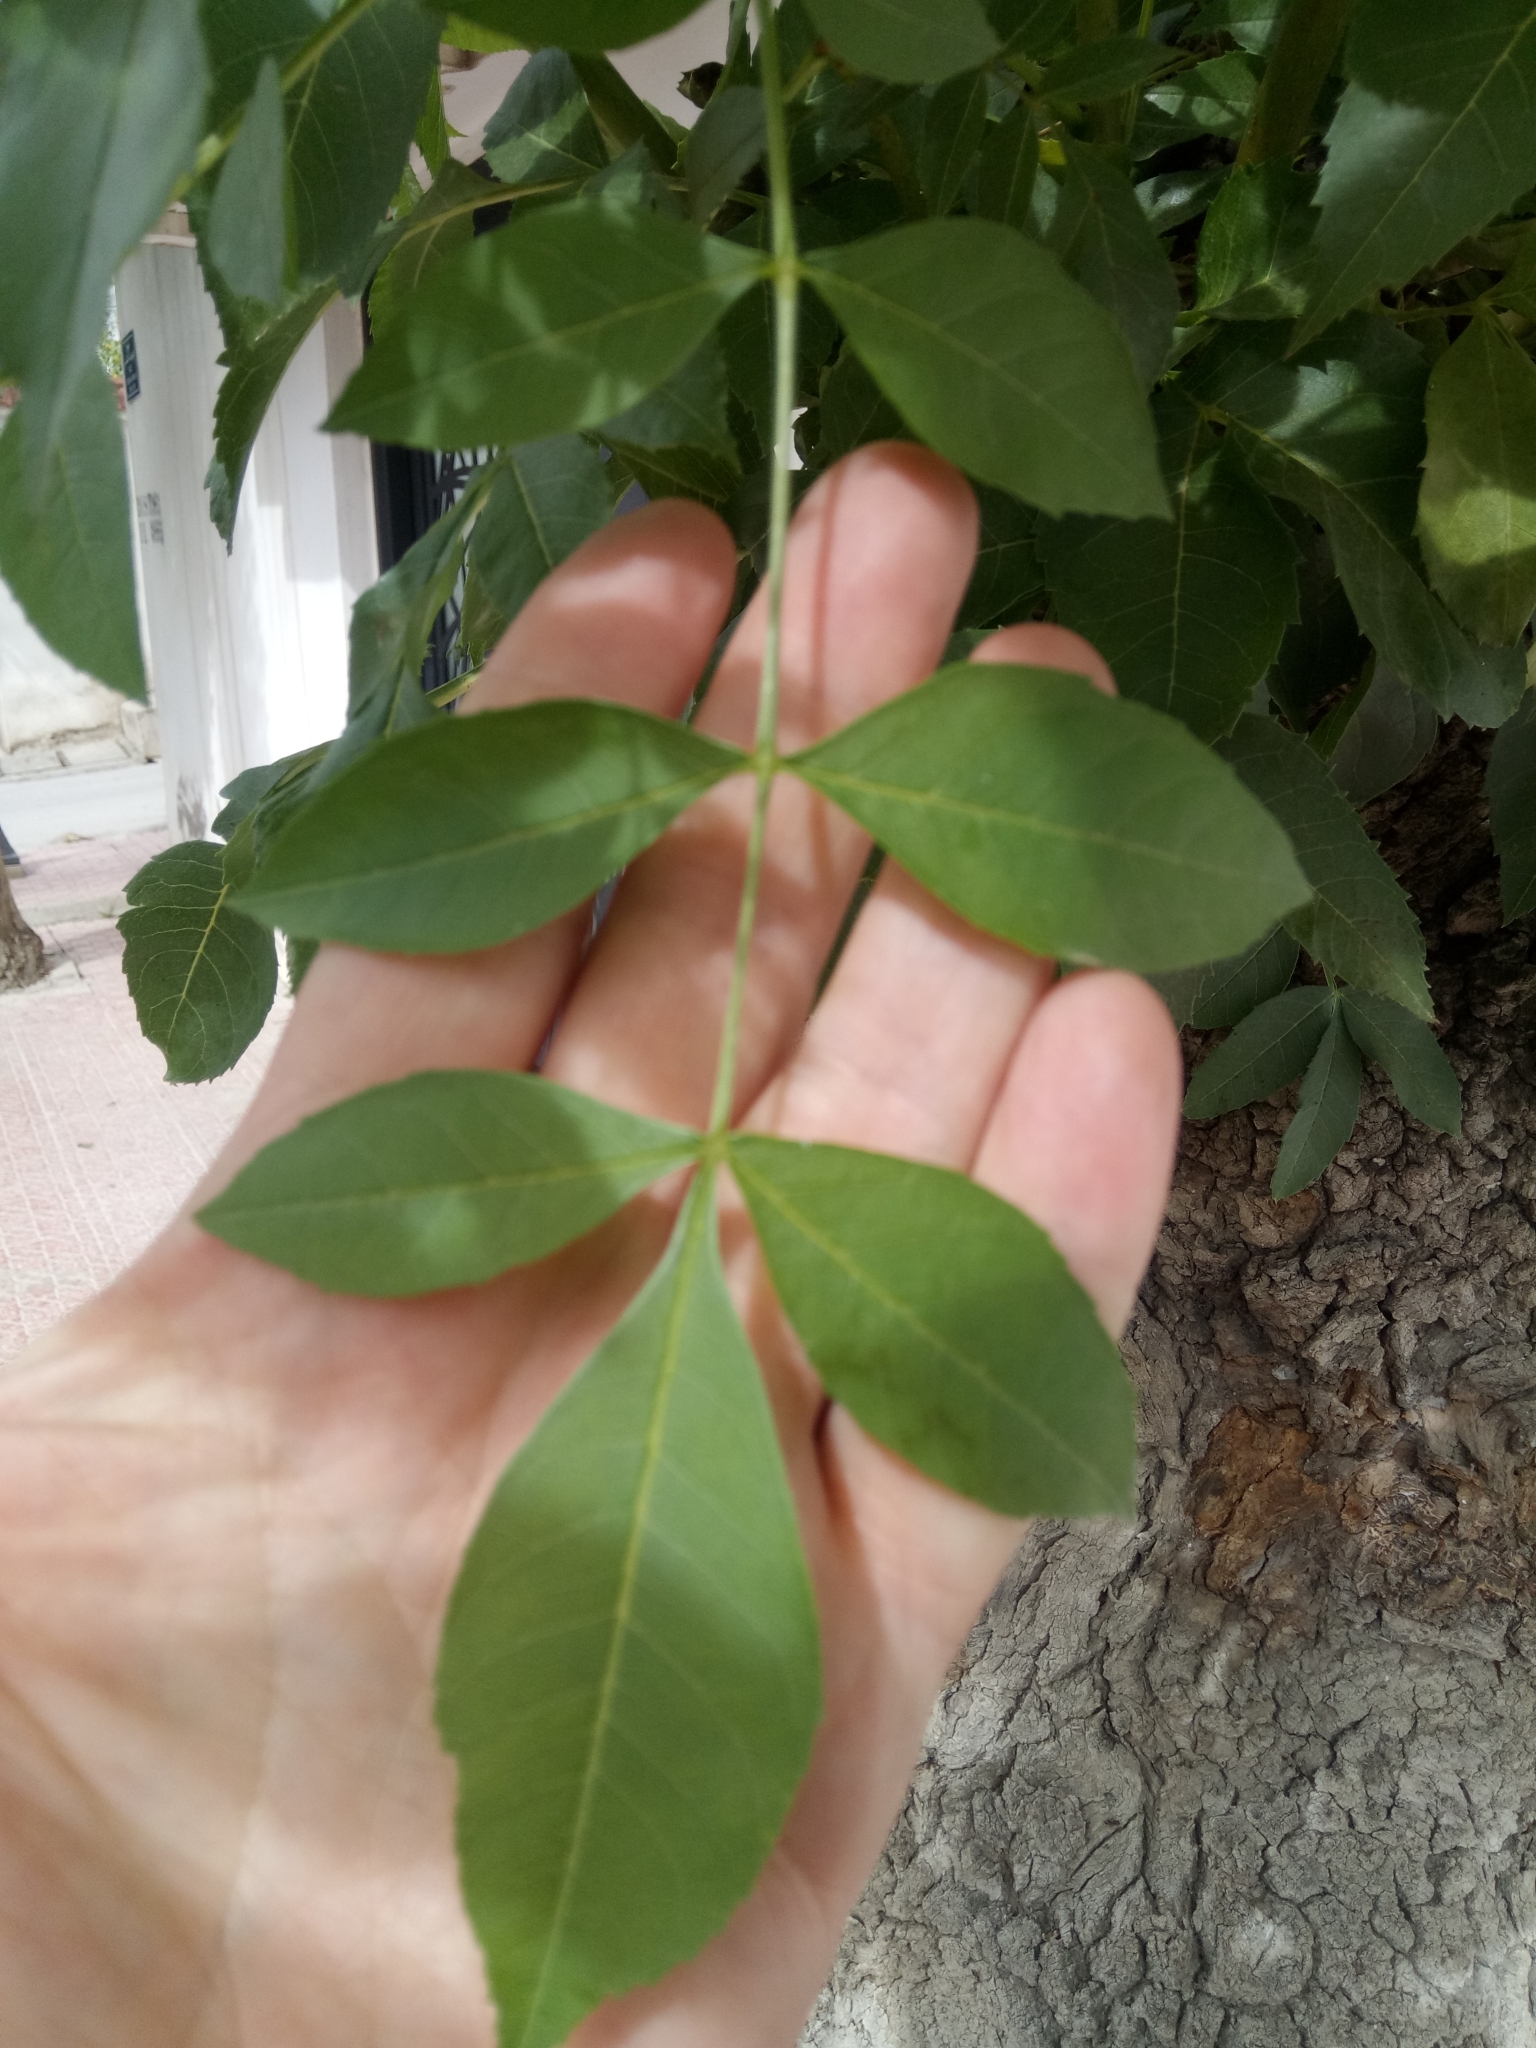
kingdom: Plantae
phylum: Tracheophyta
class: Magnoliopsida
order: Lamiales
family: Oleaceae
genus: Fraxinus
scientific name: Fraxinus angustifolia
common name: Narrow-leafed ash
